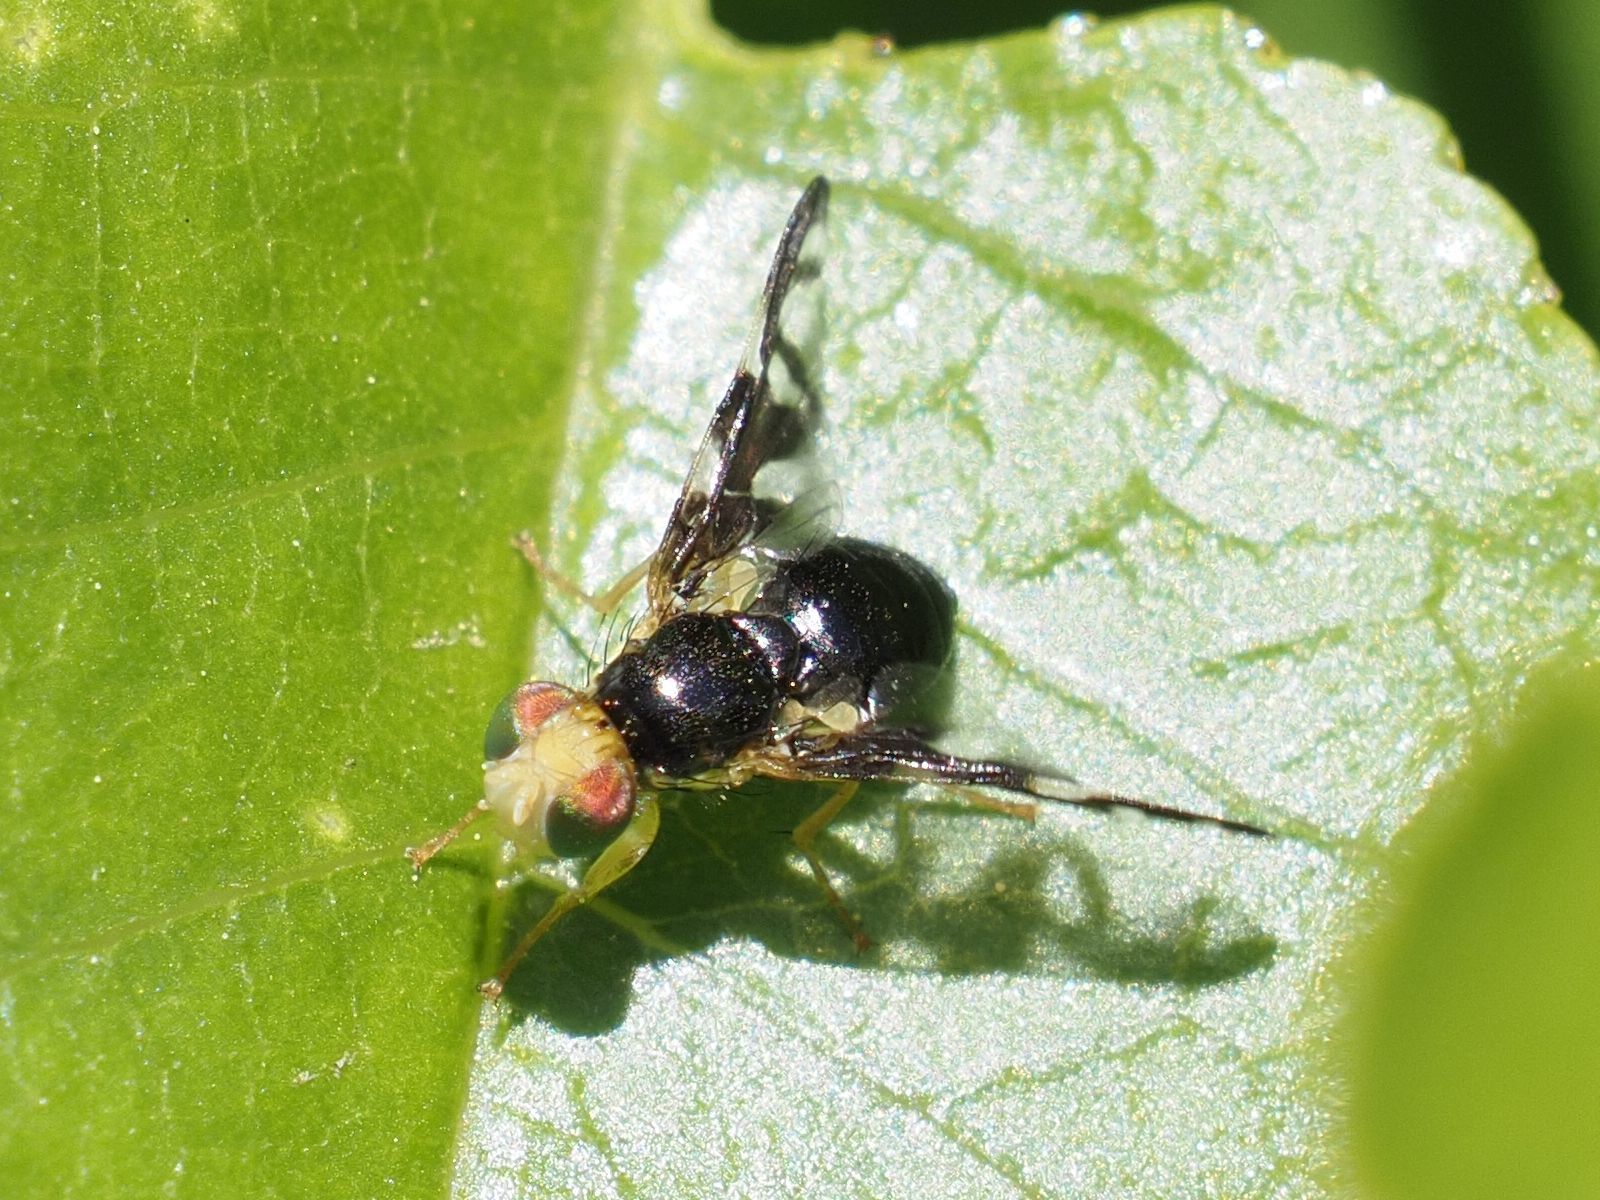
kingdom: Animalia
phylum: Arthropoda
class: Insecta
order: Diptera
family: Tephritidae
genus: Euleia
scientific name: Euleia heraclei
